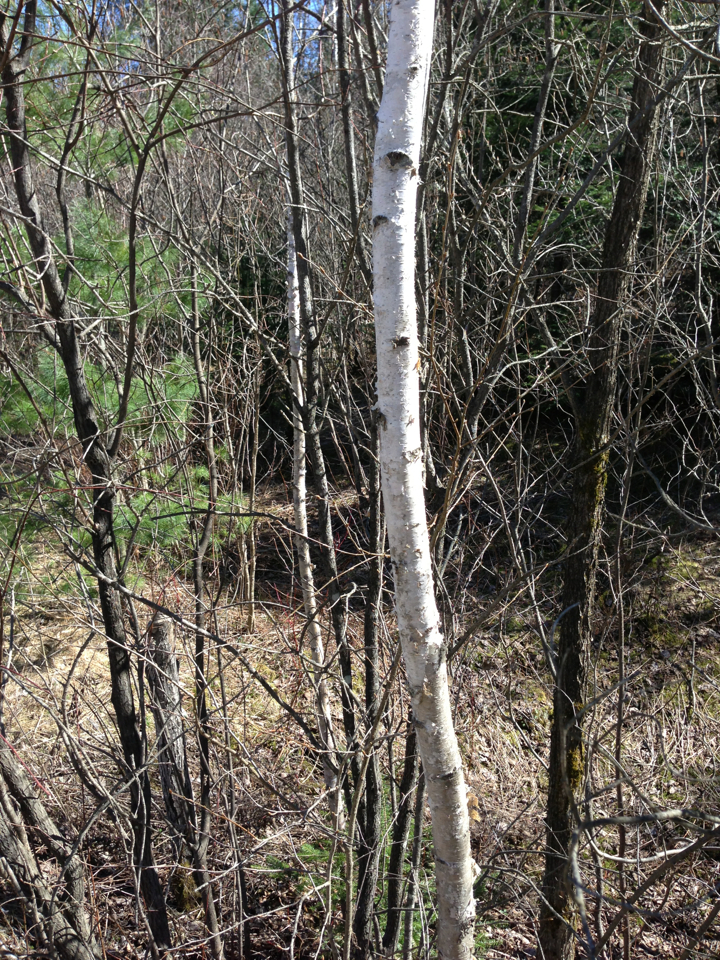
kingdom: Plantae
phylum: Tracheophyta
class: Magnoliopsida
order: Fagales
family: Betulaceae
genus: Betula
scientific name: Betula papyrifera
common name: Paper birch
